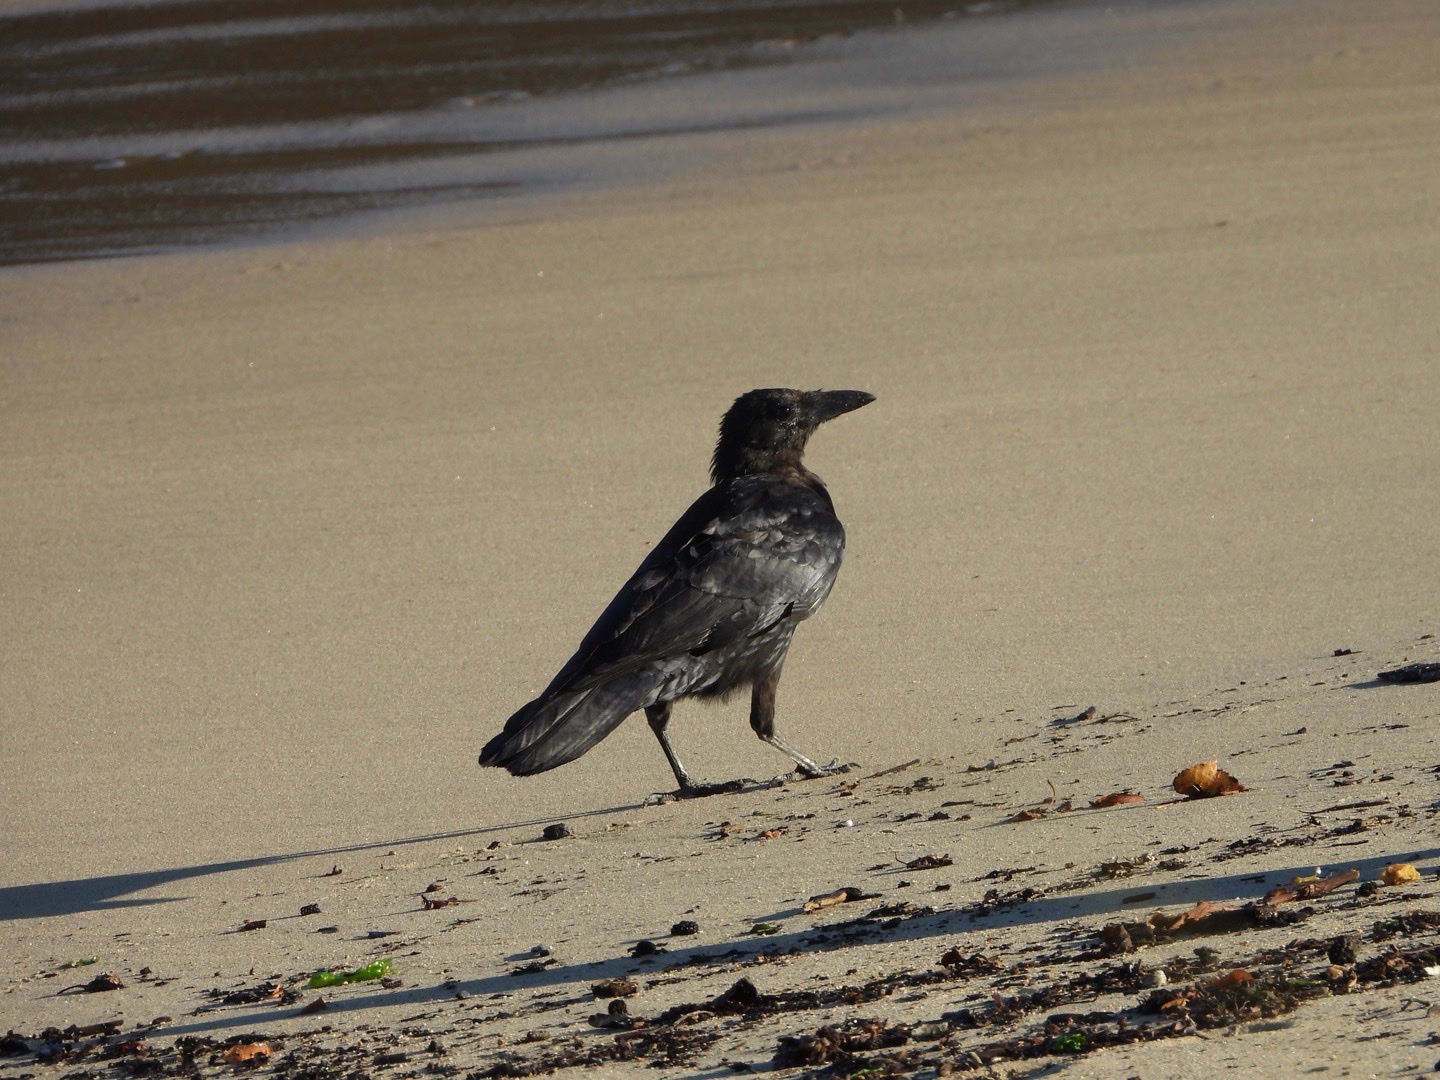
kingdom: Animalia
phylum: Chordata
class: Aves
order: Passeriformes
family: Corvidae
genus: Corvus
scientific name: Corvus corone
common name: Carrion crow
